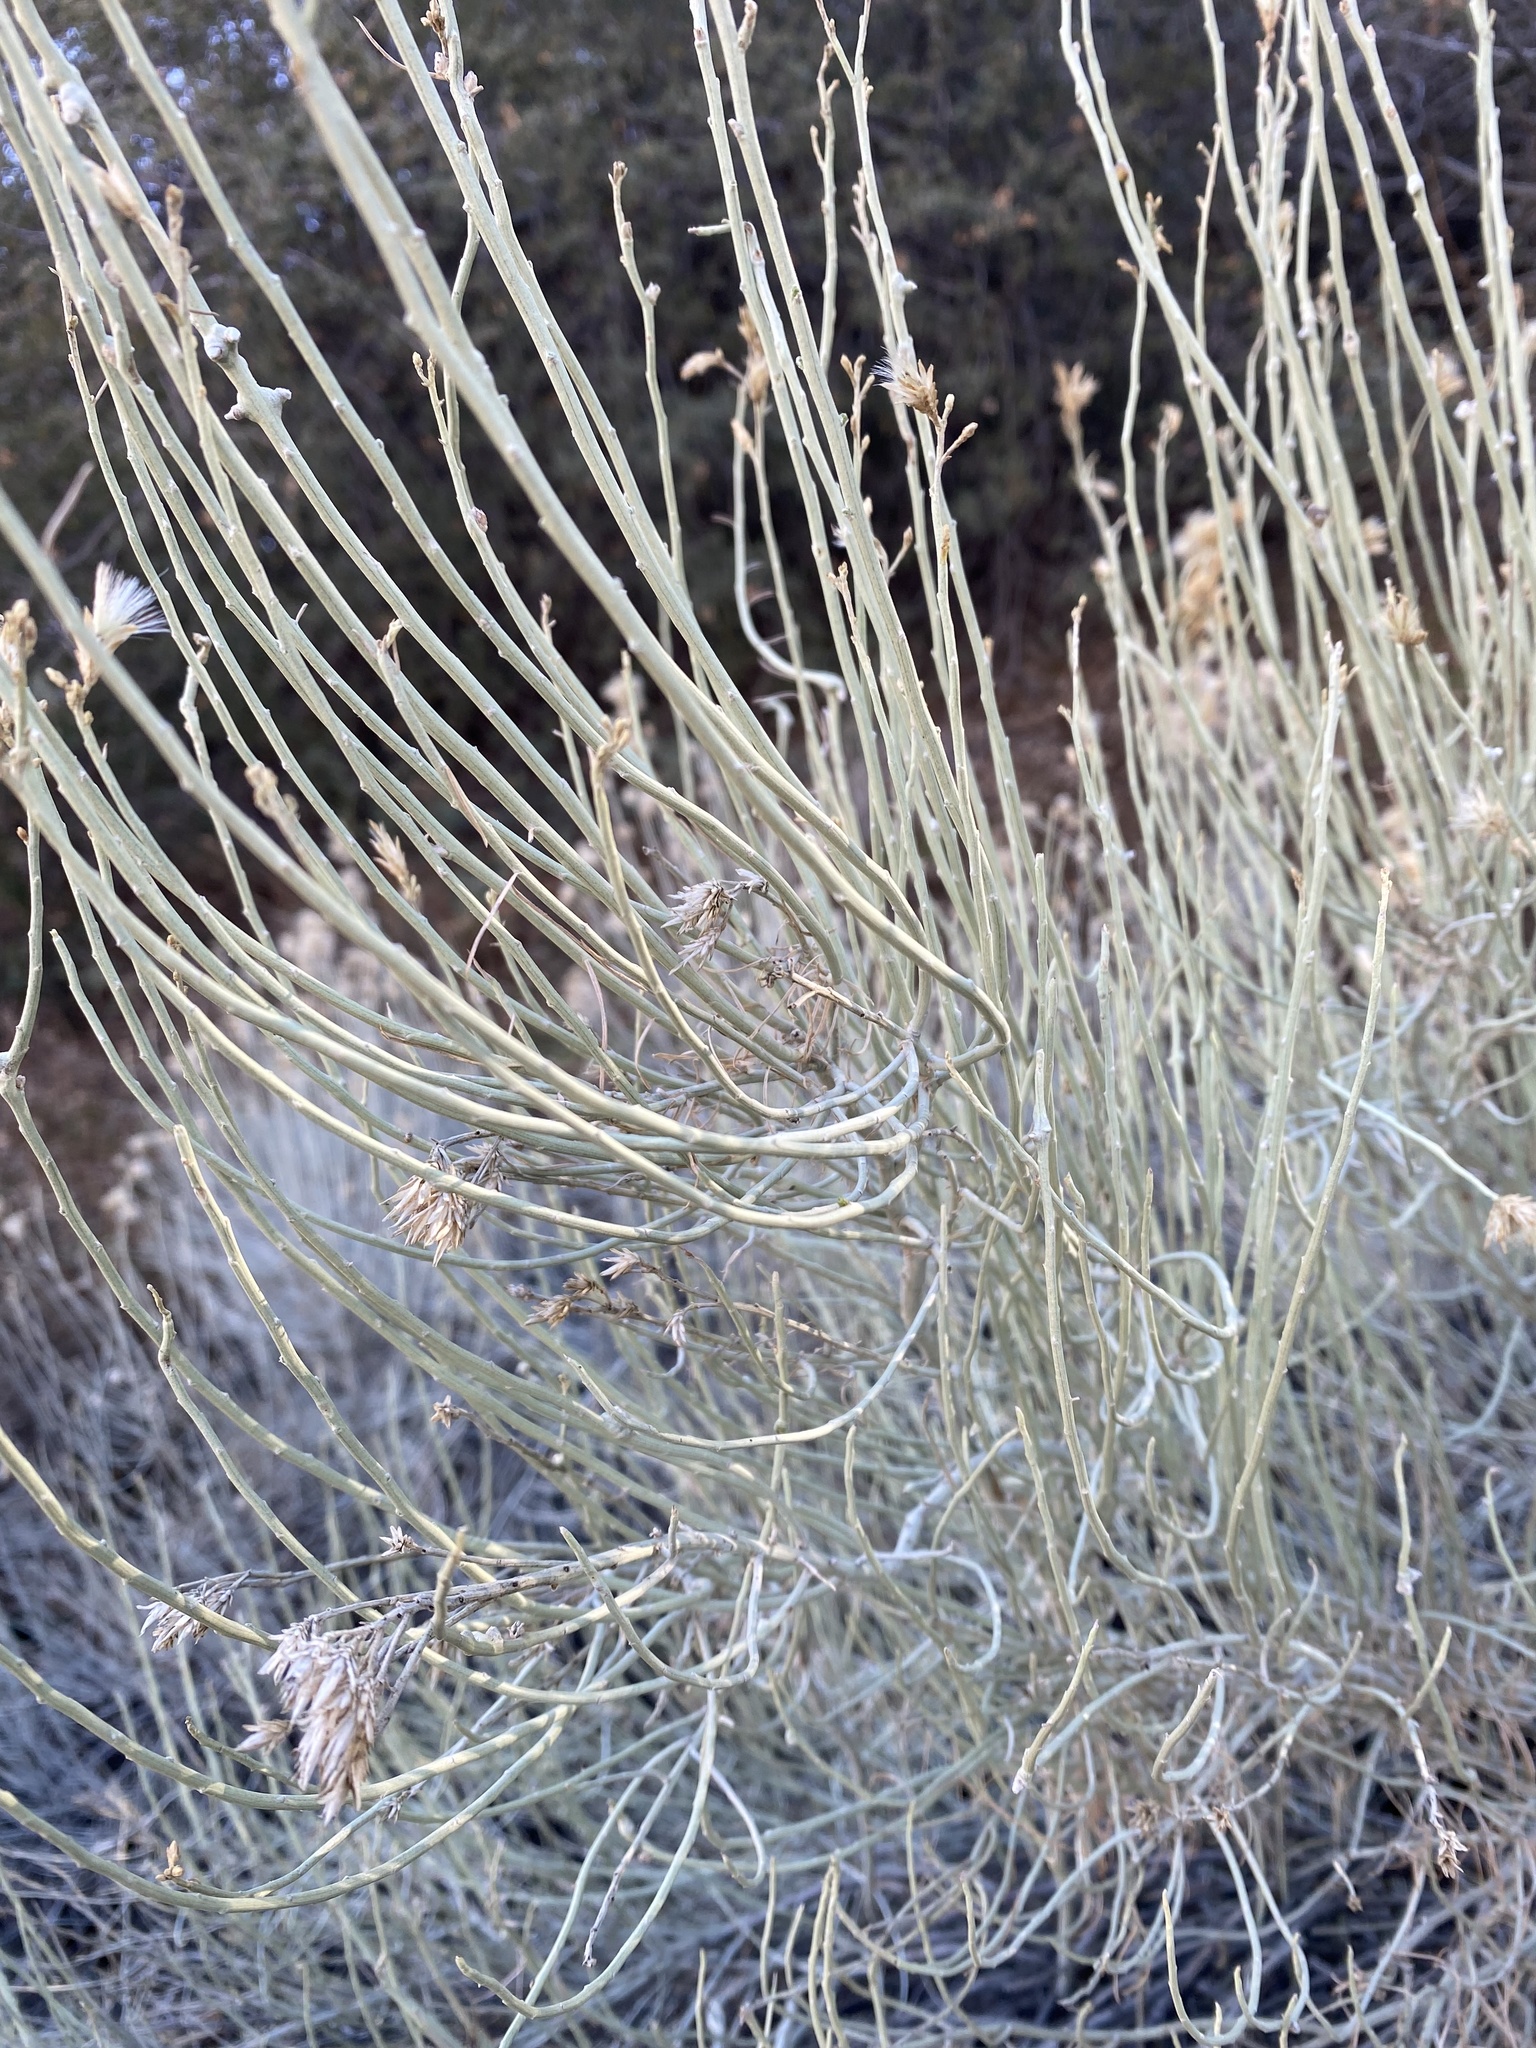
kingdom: Plantae
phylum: Tracheophyta
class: Magnoliopsida
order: Asterales
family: Asteraceae
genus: Ericameria
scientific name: Ericameria nauseosa
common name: Rubber rabbitbrush
